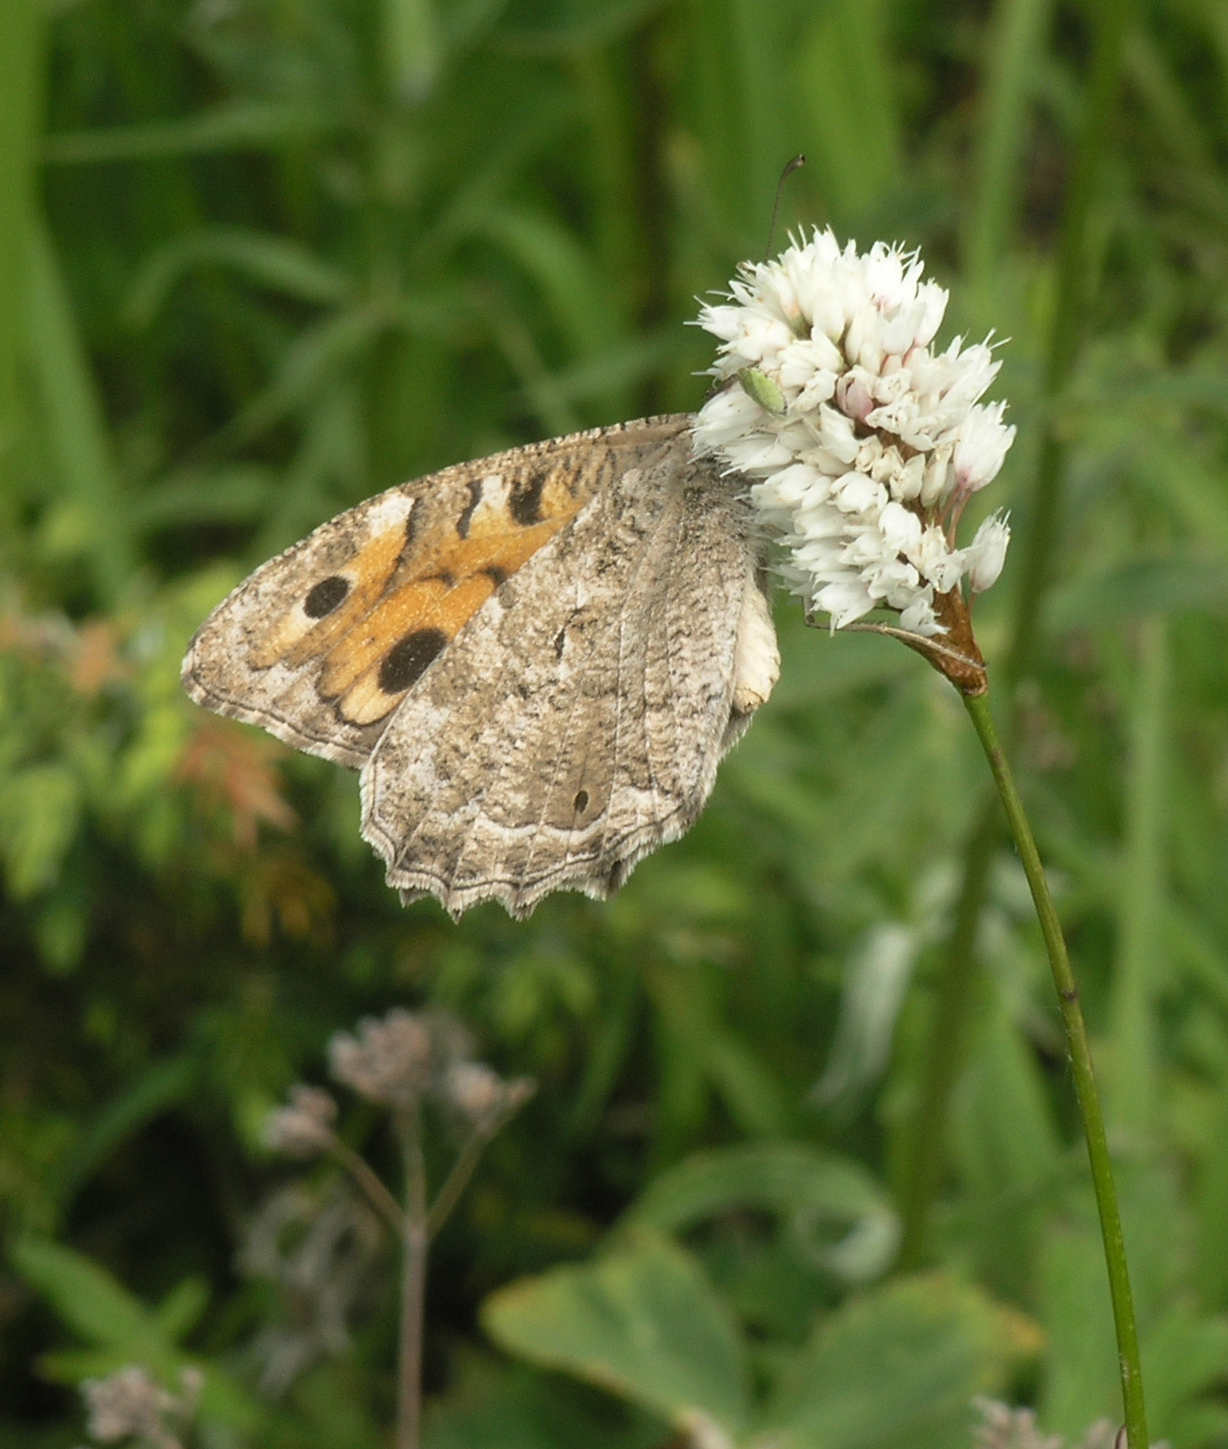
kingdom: Animalia
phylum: Arthropoda
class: Insecta
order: Lepidoptera
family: Nymphalidae
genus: Satyrus
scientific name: Satyrus Chazara enervata
